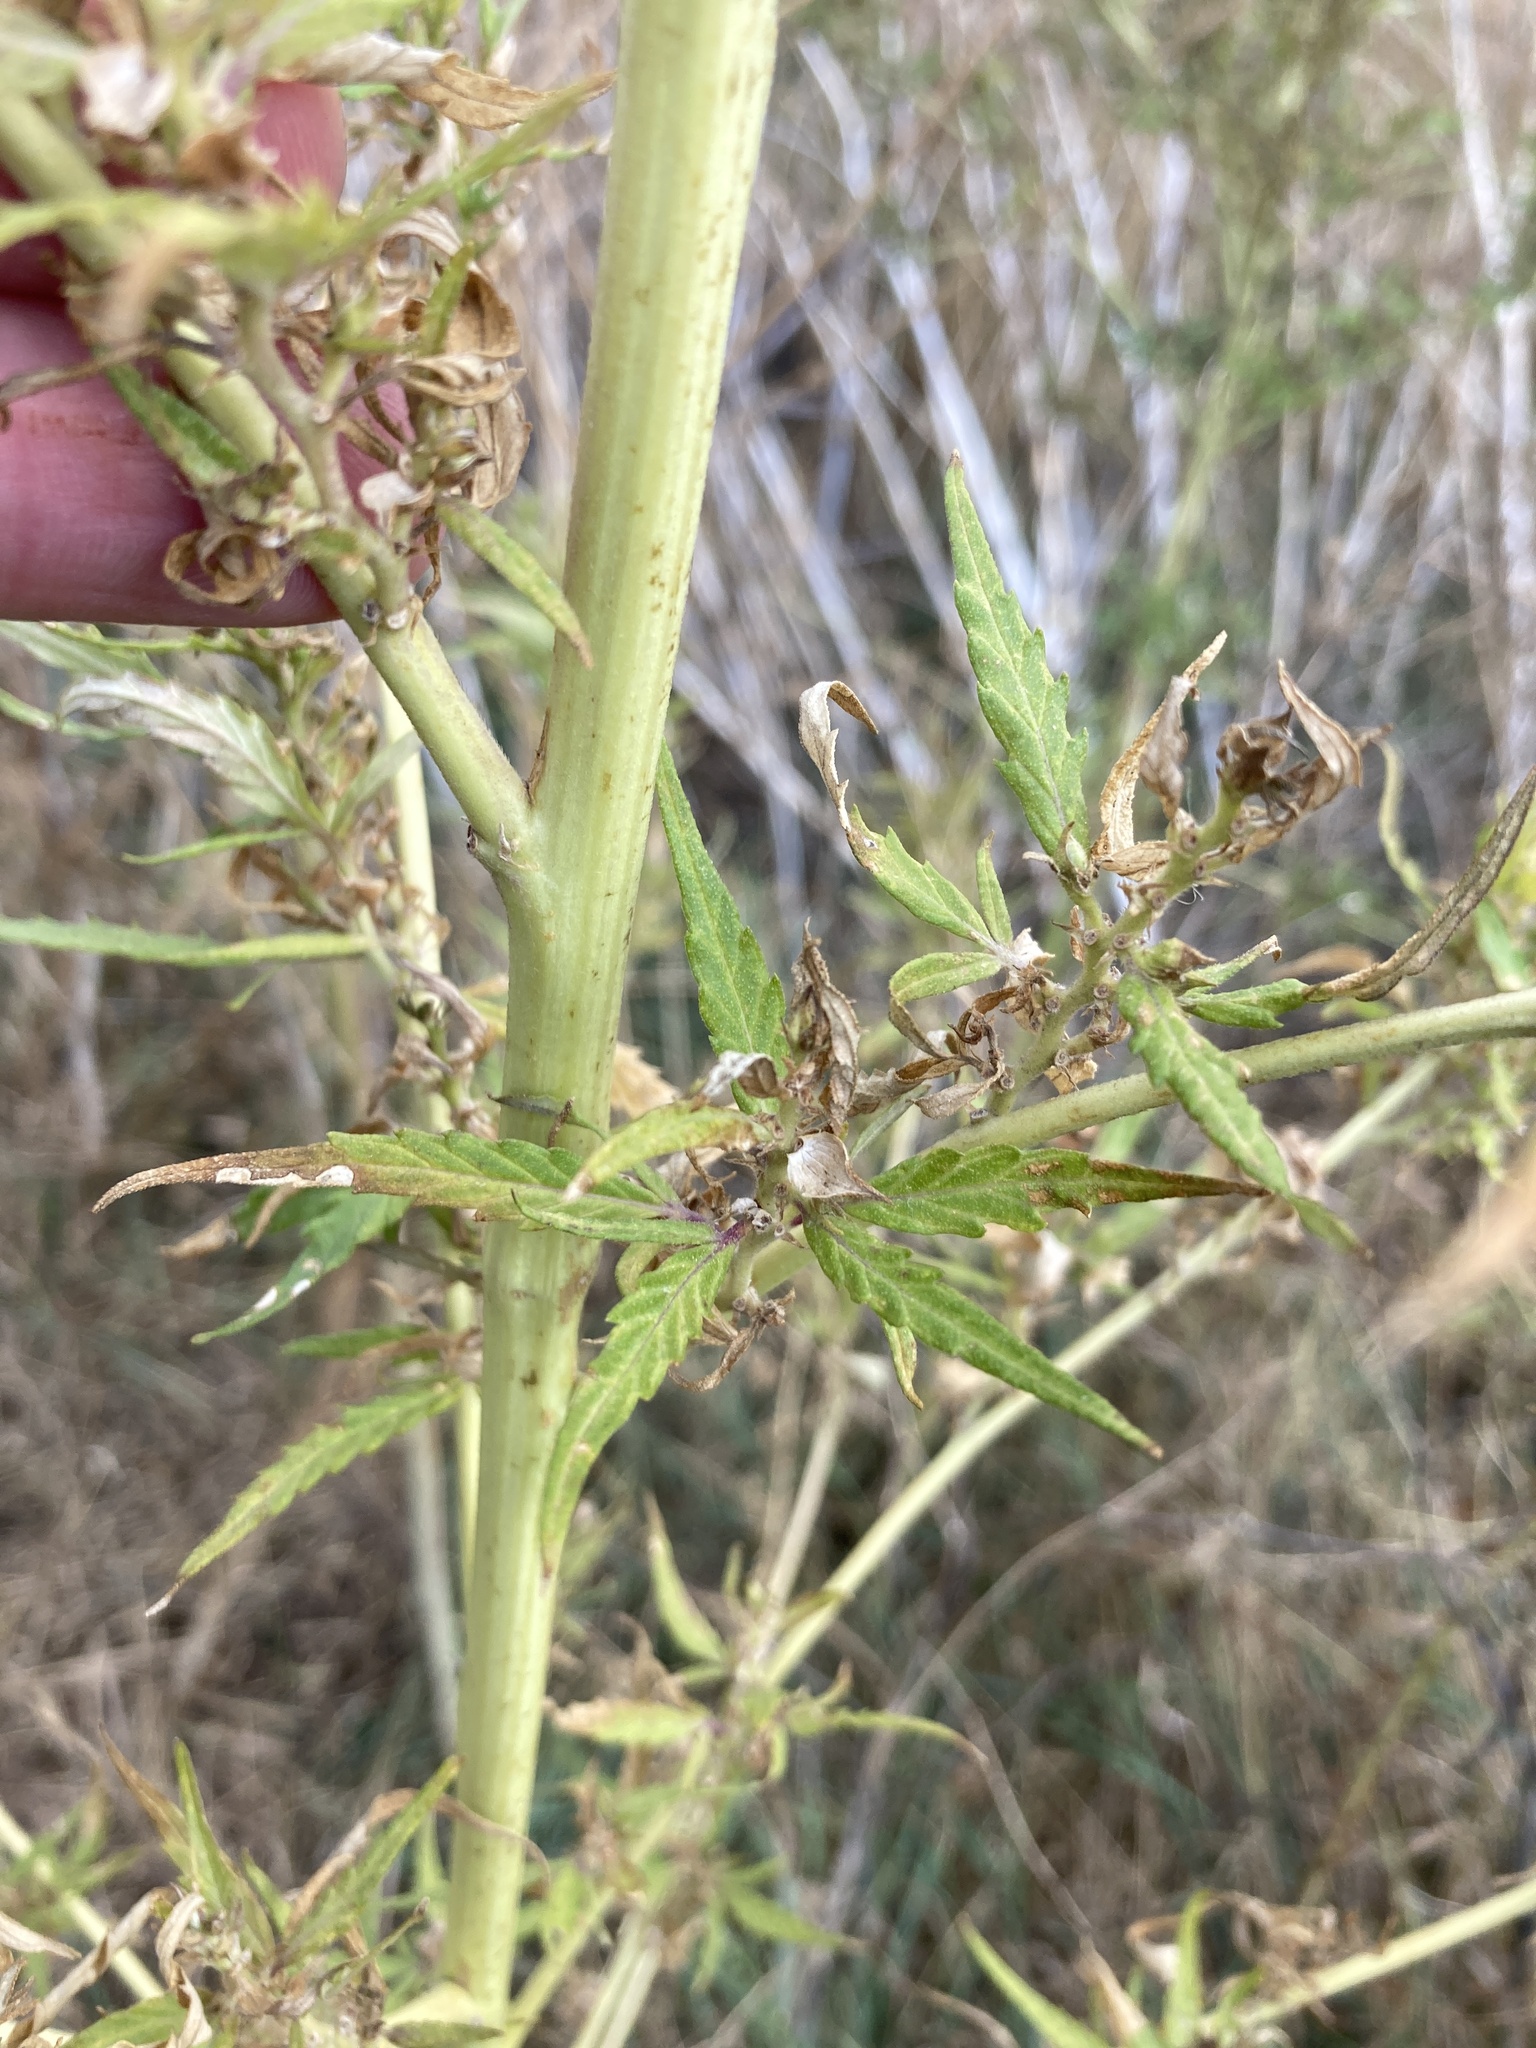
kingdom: Plantae
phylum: Tracheophyta
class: Magnoliopsida
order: Rosales
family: Cannabaceae
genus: Cannabis
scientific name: Cannabis sativa
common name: Hemp
